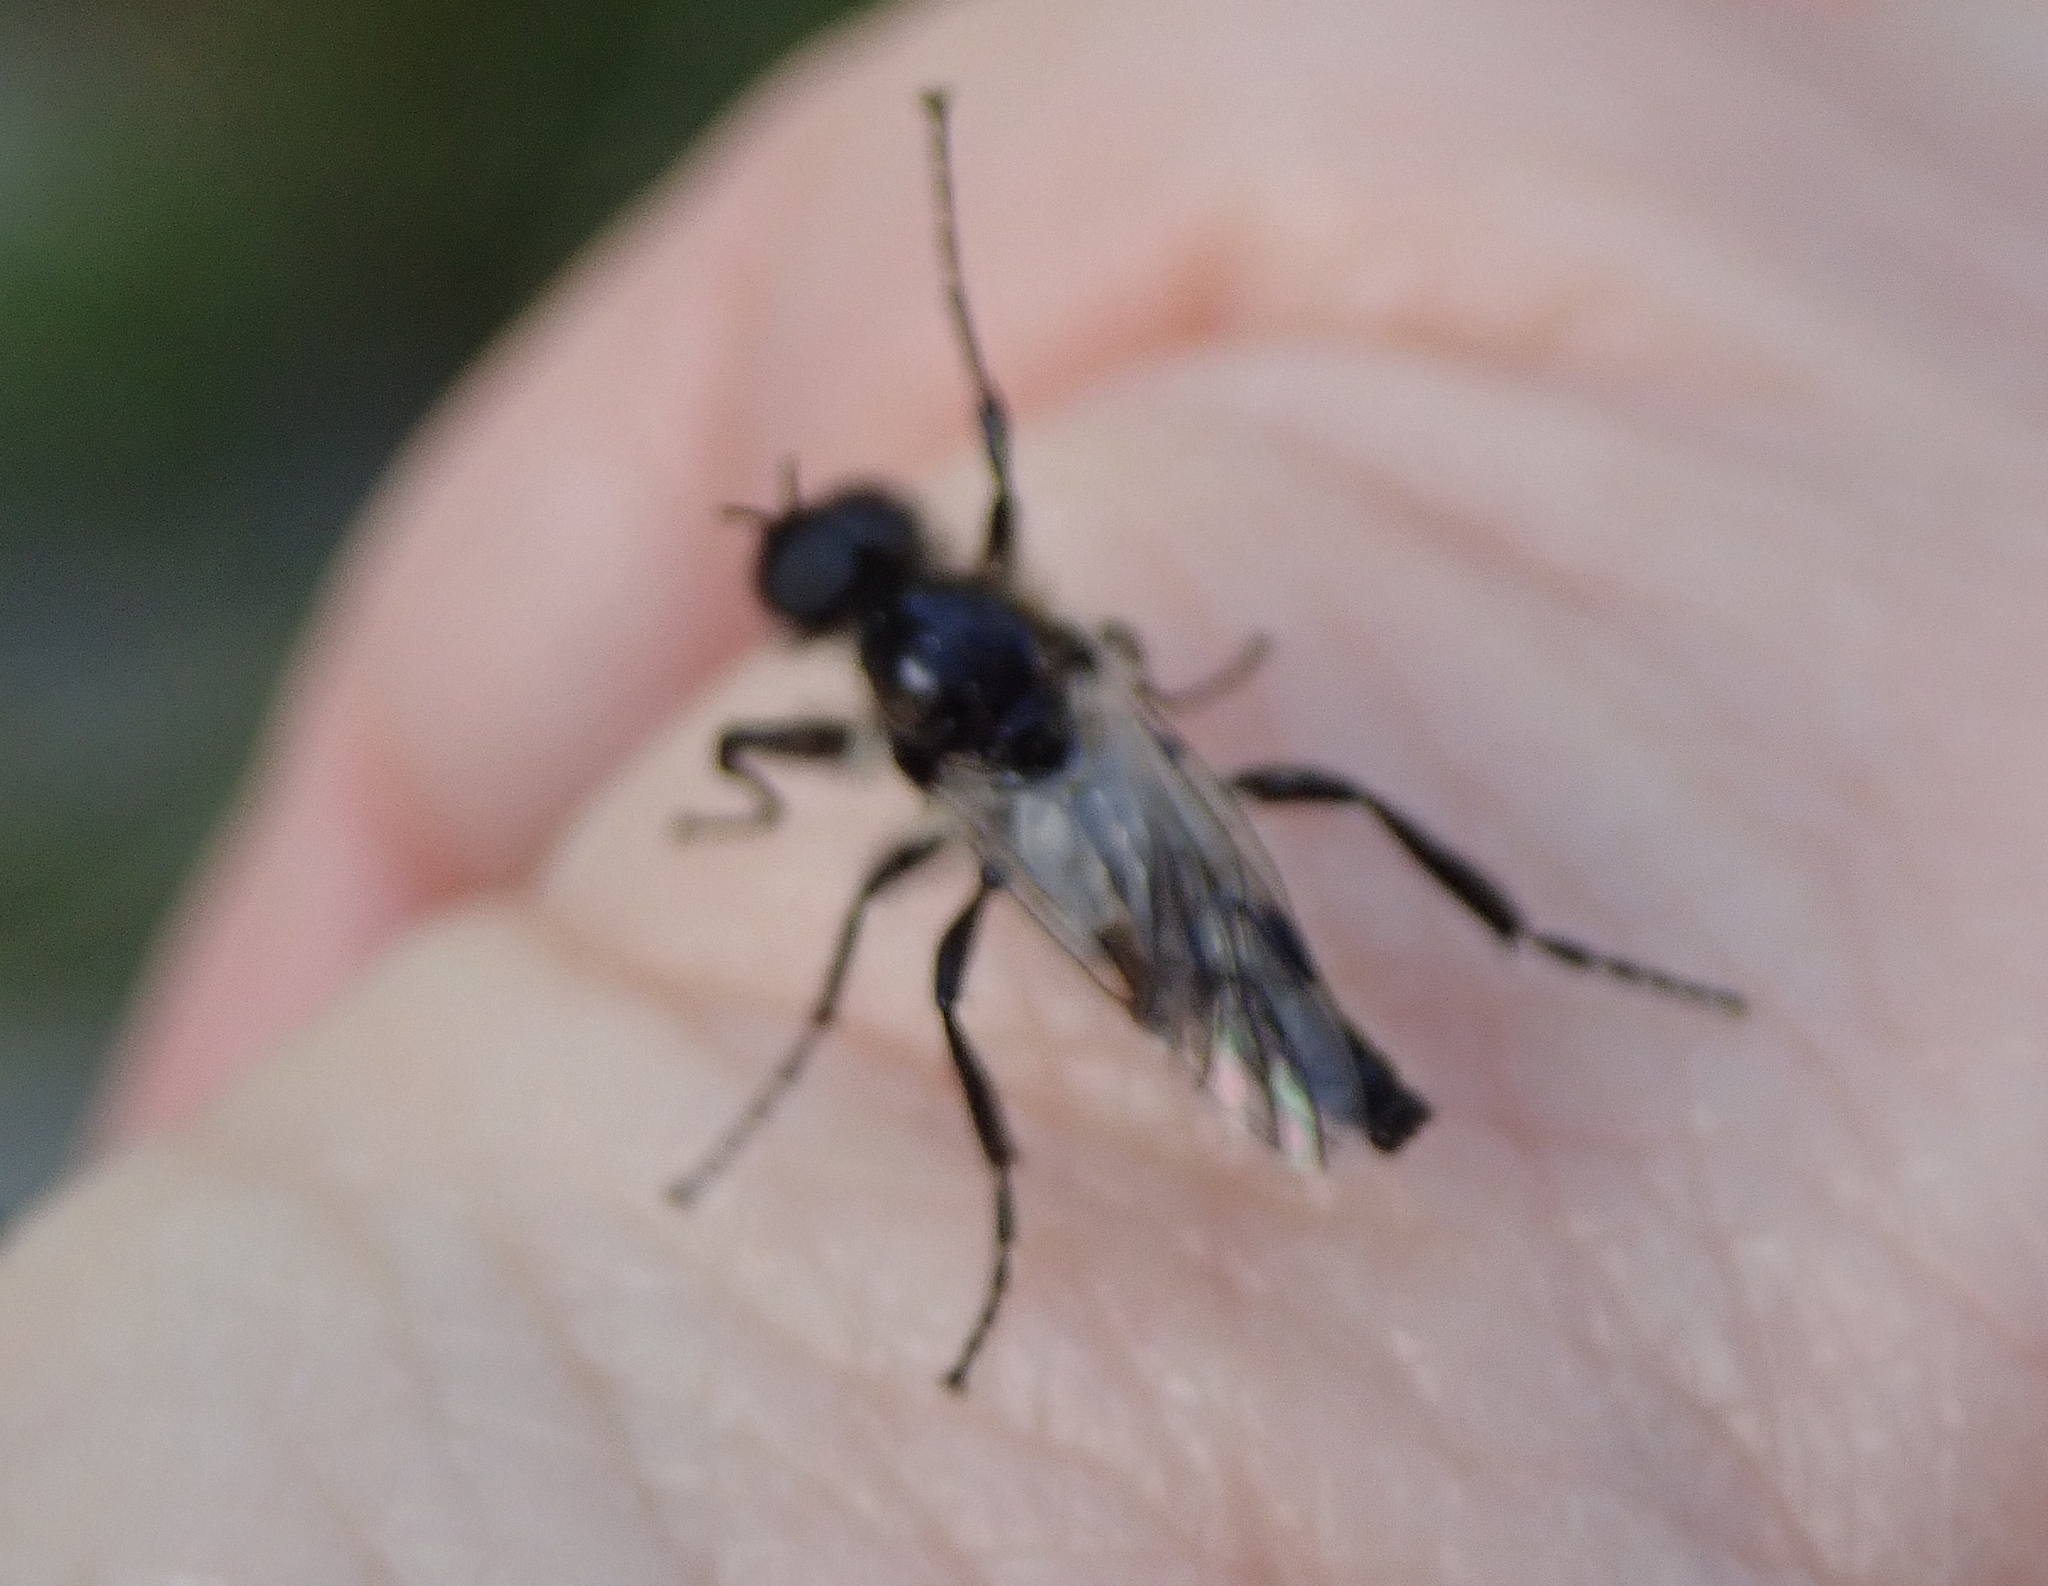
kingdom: Animalia
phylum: Arthropoda
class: Insecta
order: Diptera
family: Bibionidae
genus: Bibio
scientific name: Bibio albipennis
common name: White-winged march fly
